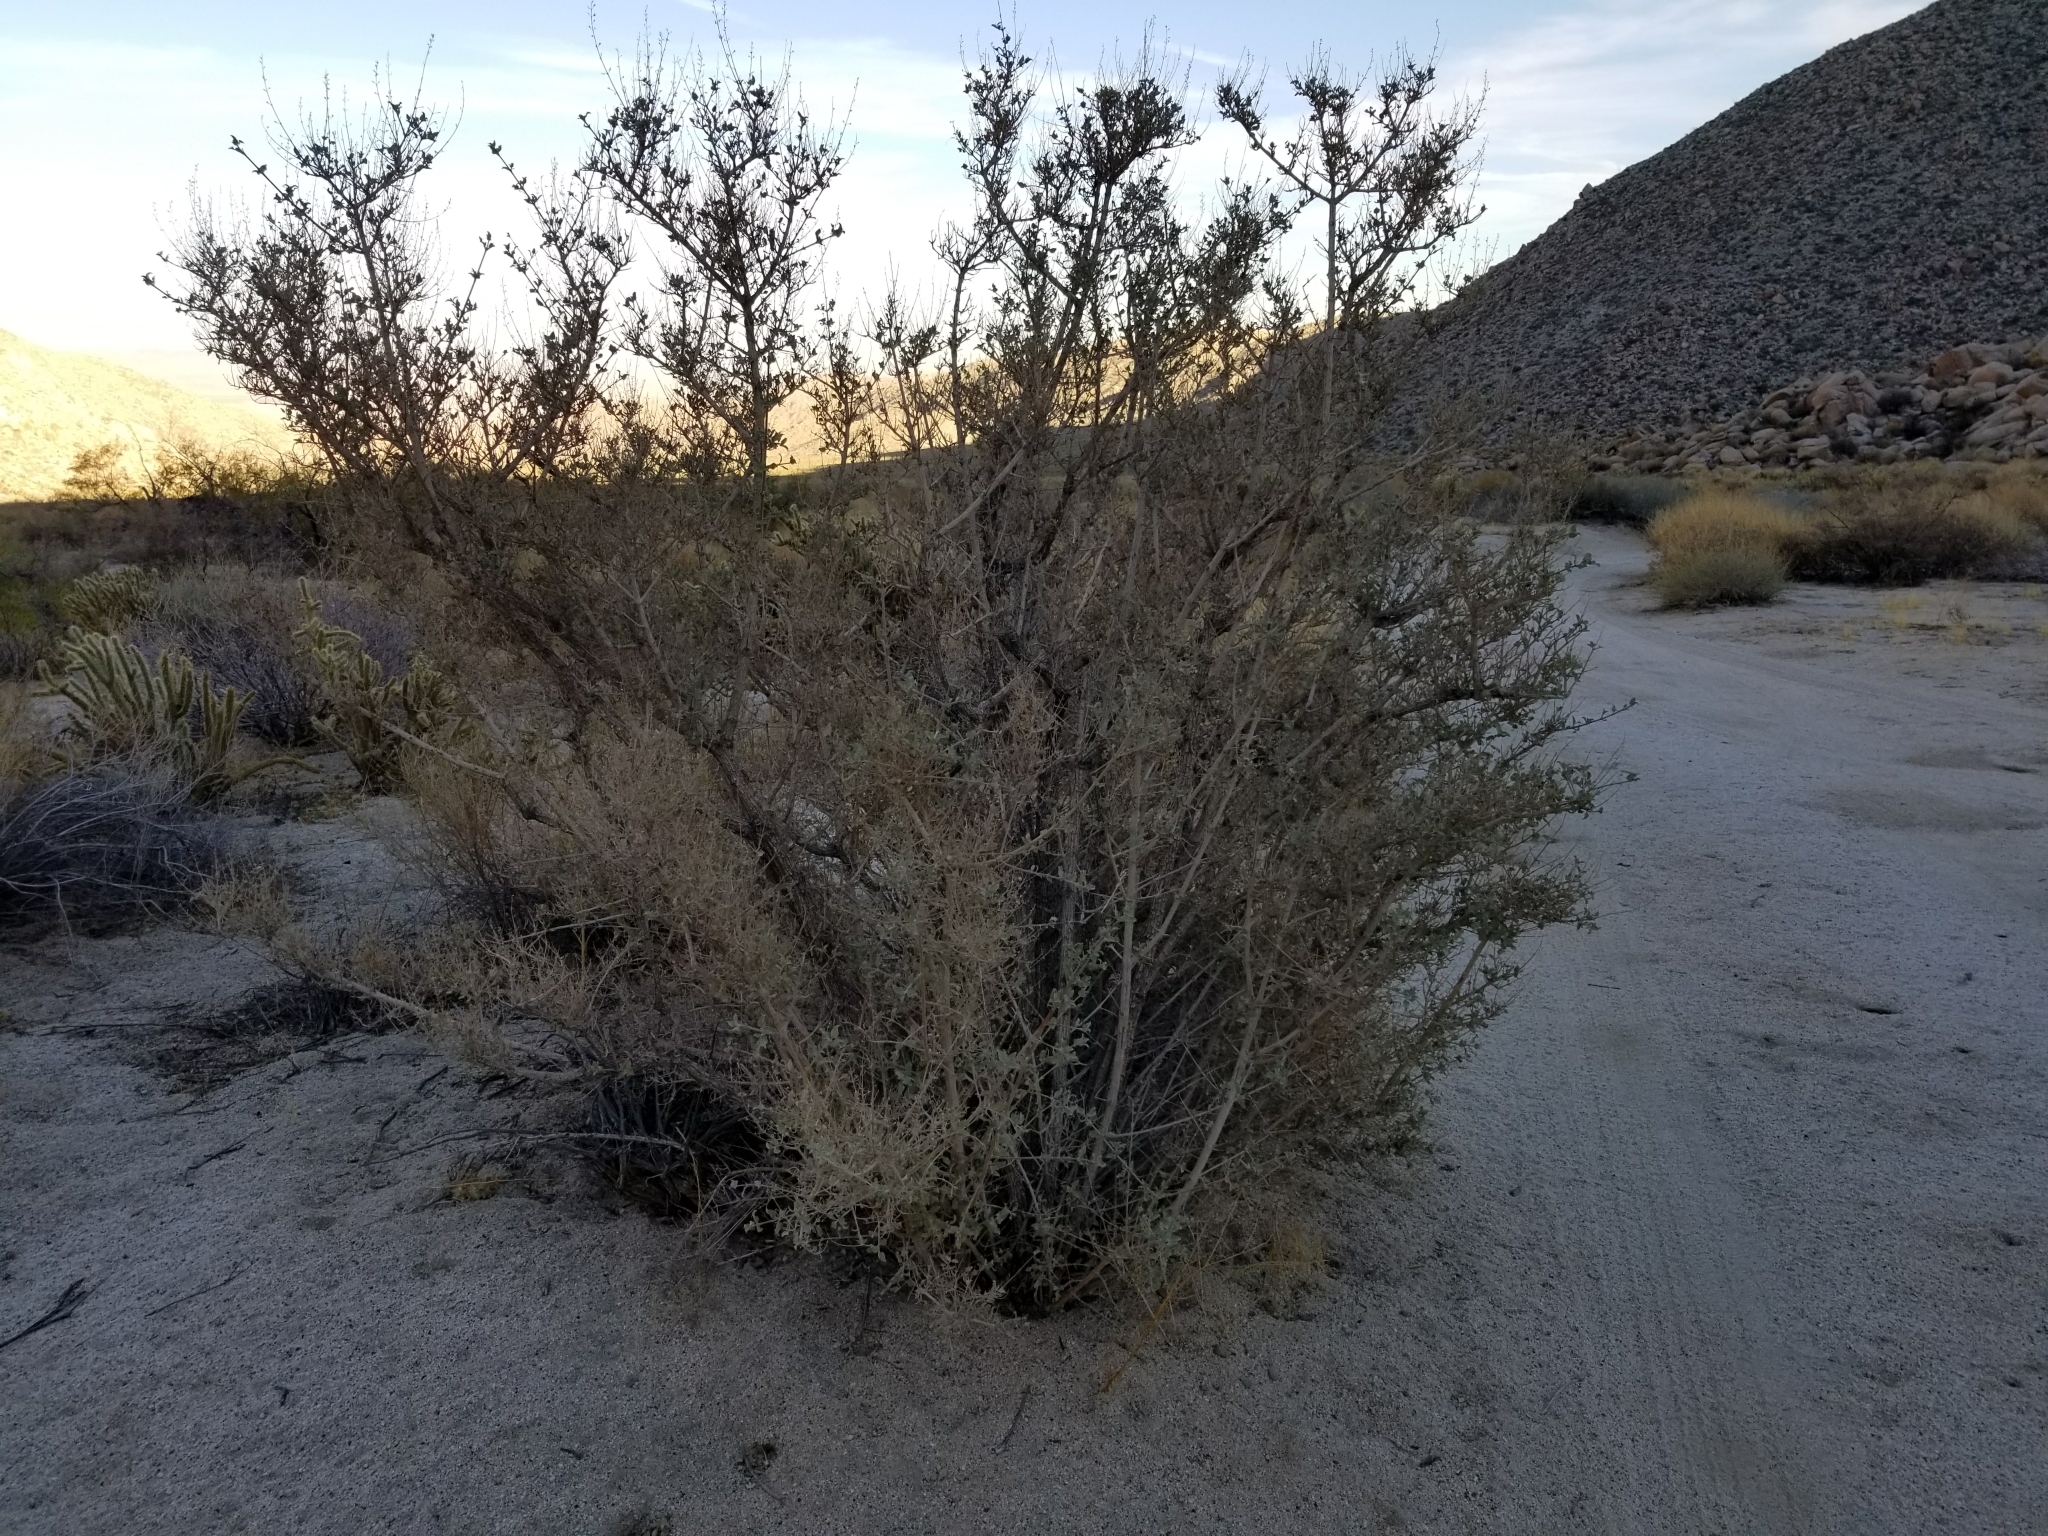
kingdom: Plantae
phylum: Tracheophyta
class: Magnoliopsida
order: Lamiales
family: Lamiaceae
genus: Condea
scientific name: Condea emoryi
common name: Chia
